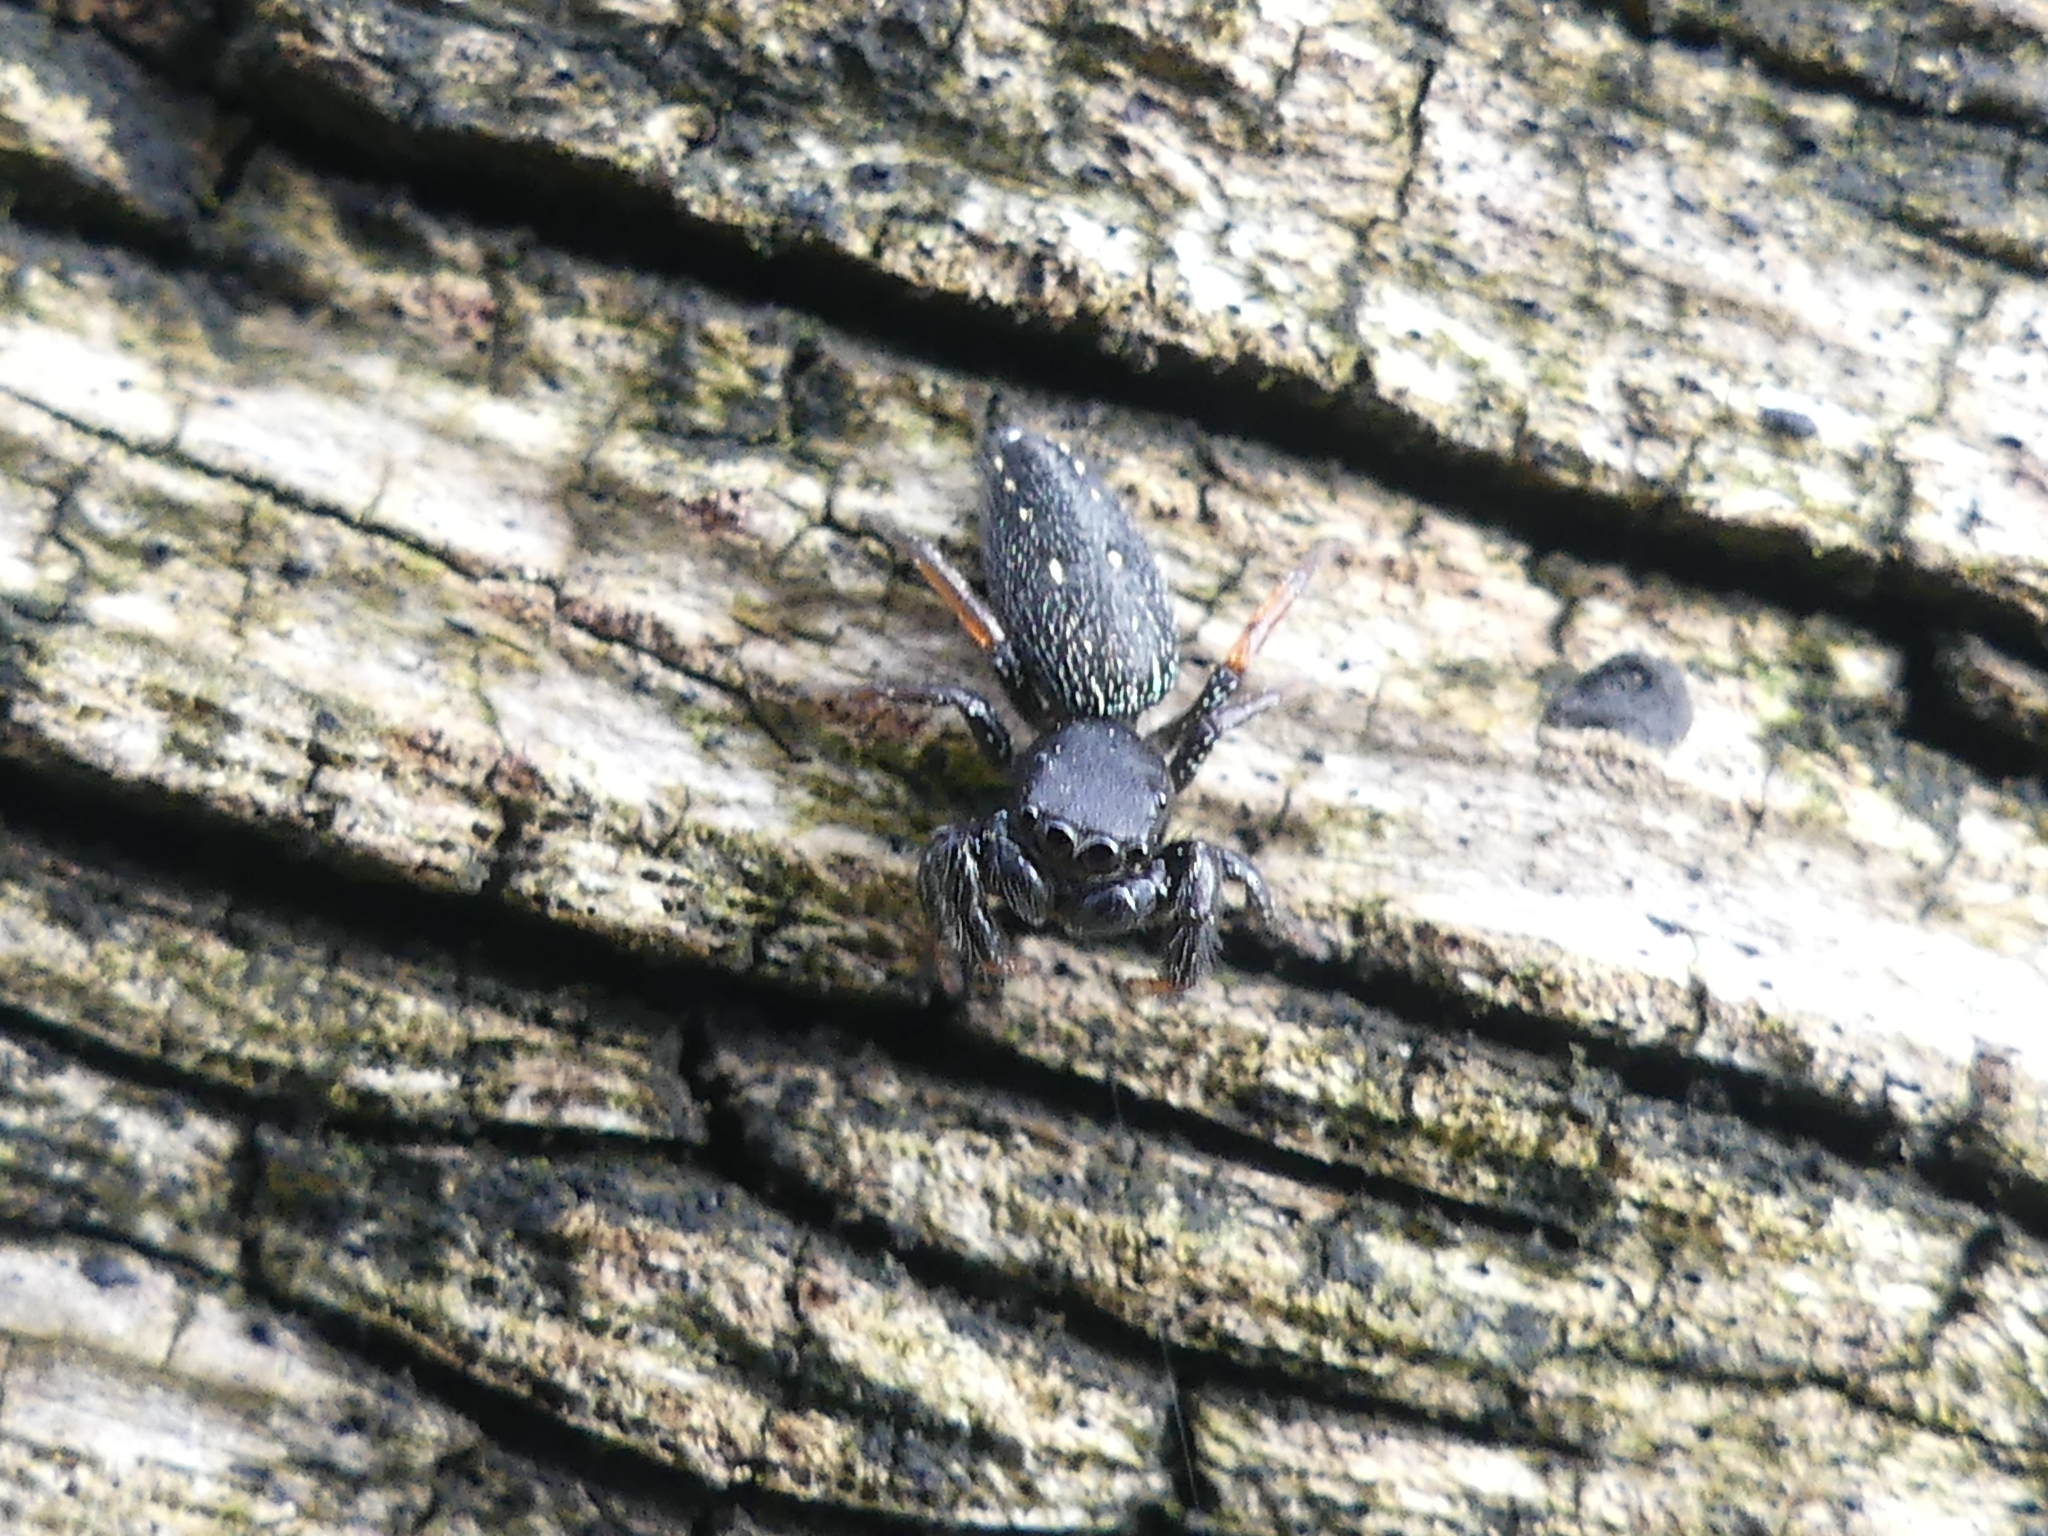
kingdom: Animalia
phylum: Arthropoda
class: Arachnida
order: Araneae
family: Salticidae
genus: Metacyrba
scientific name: Metacyrba taeniola
